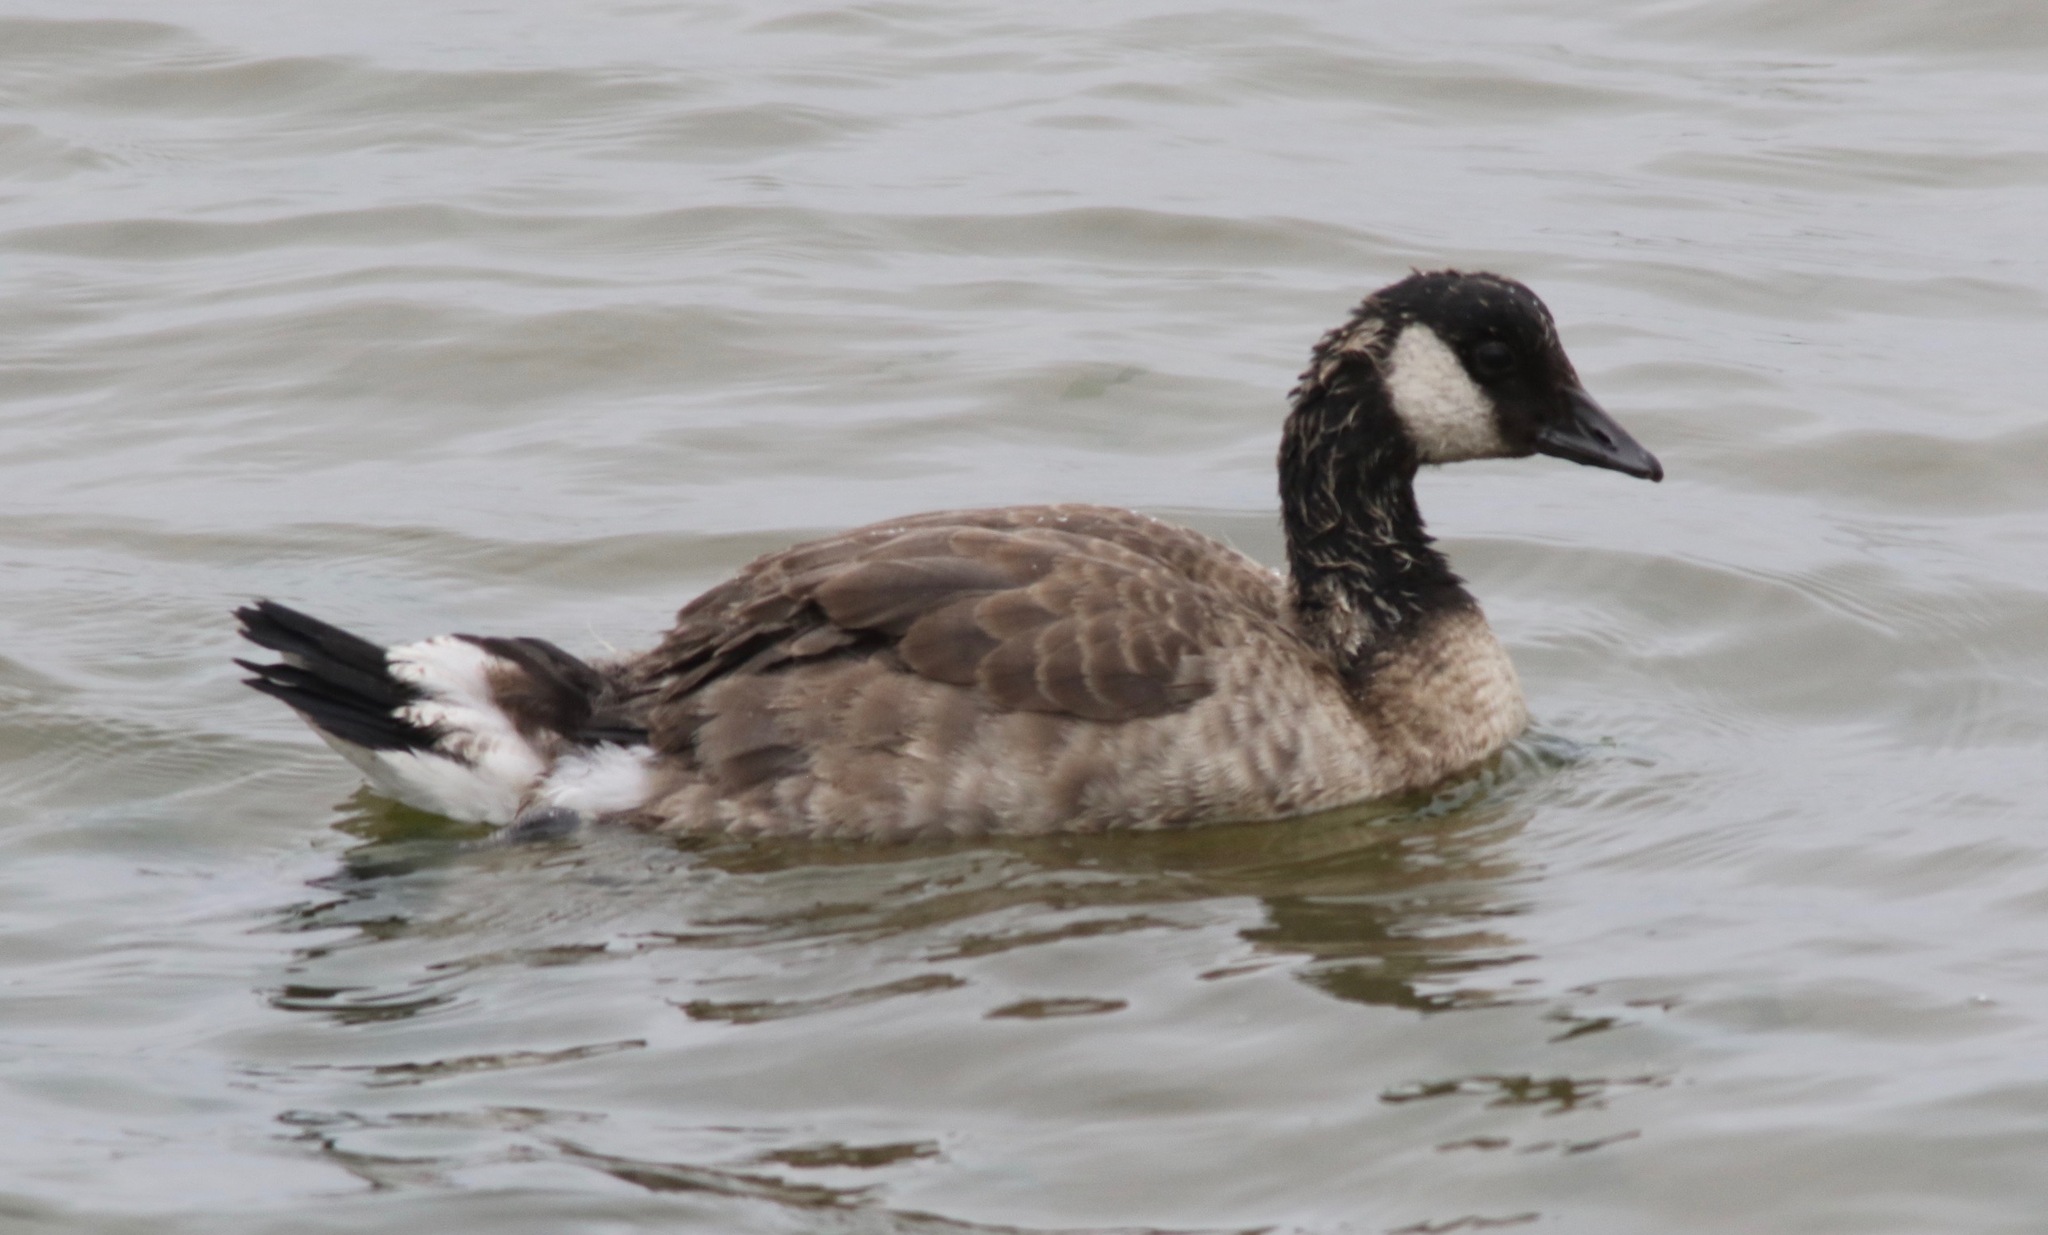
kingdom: Animalia
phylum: Chordata
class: Aves
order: Anseriformes
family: Anatidae
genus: Branta
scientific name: Branta canadensis
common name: Canada goose
